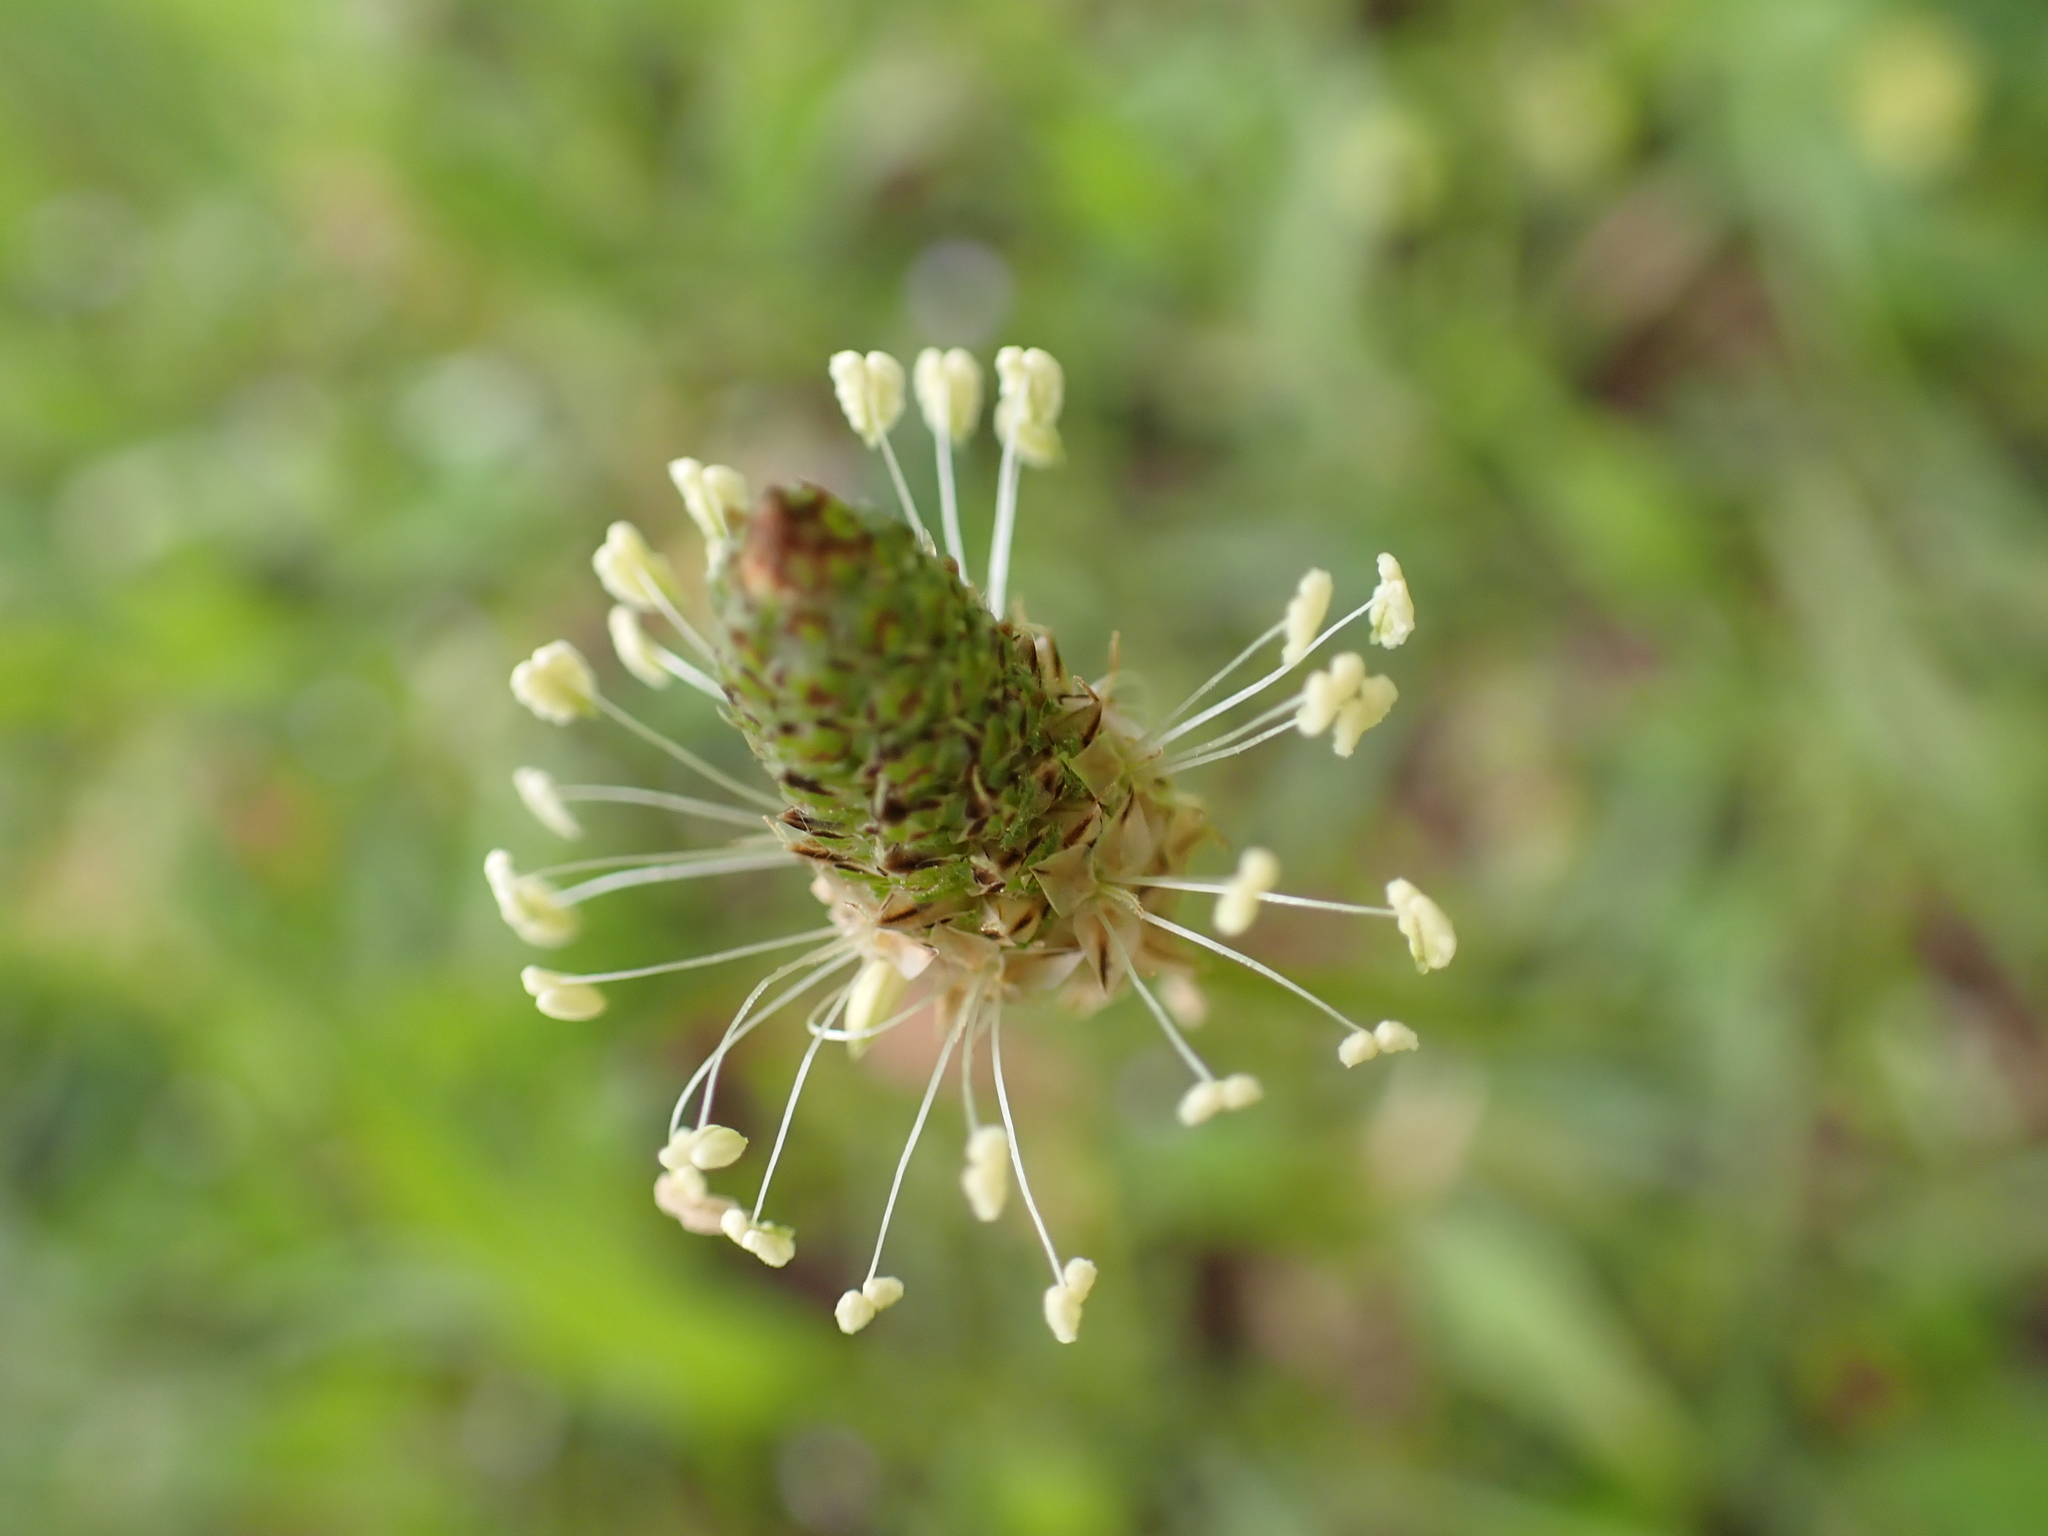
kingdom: Plantae
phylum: Tracheophyta
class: Magnoliopsida
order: Lamiales
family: Plantaginaceae
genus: Plantago
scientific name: Plantago lanceolata
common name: Ribwort plantain
